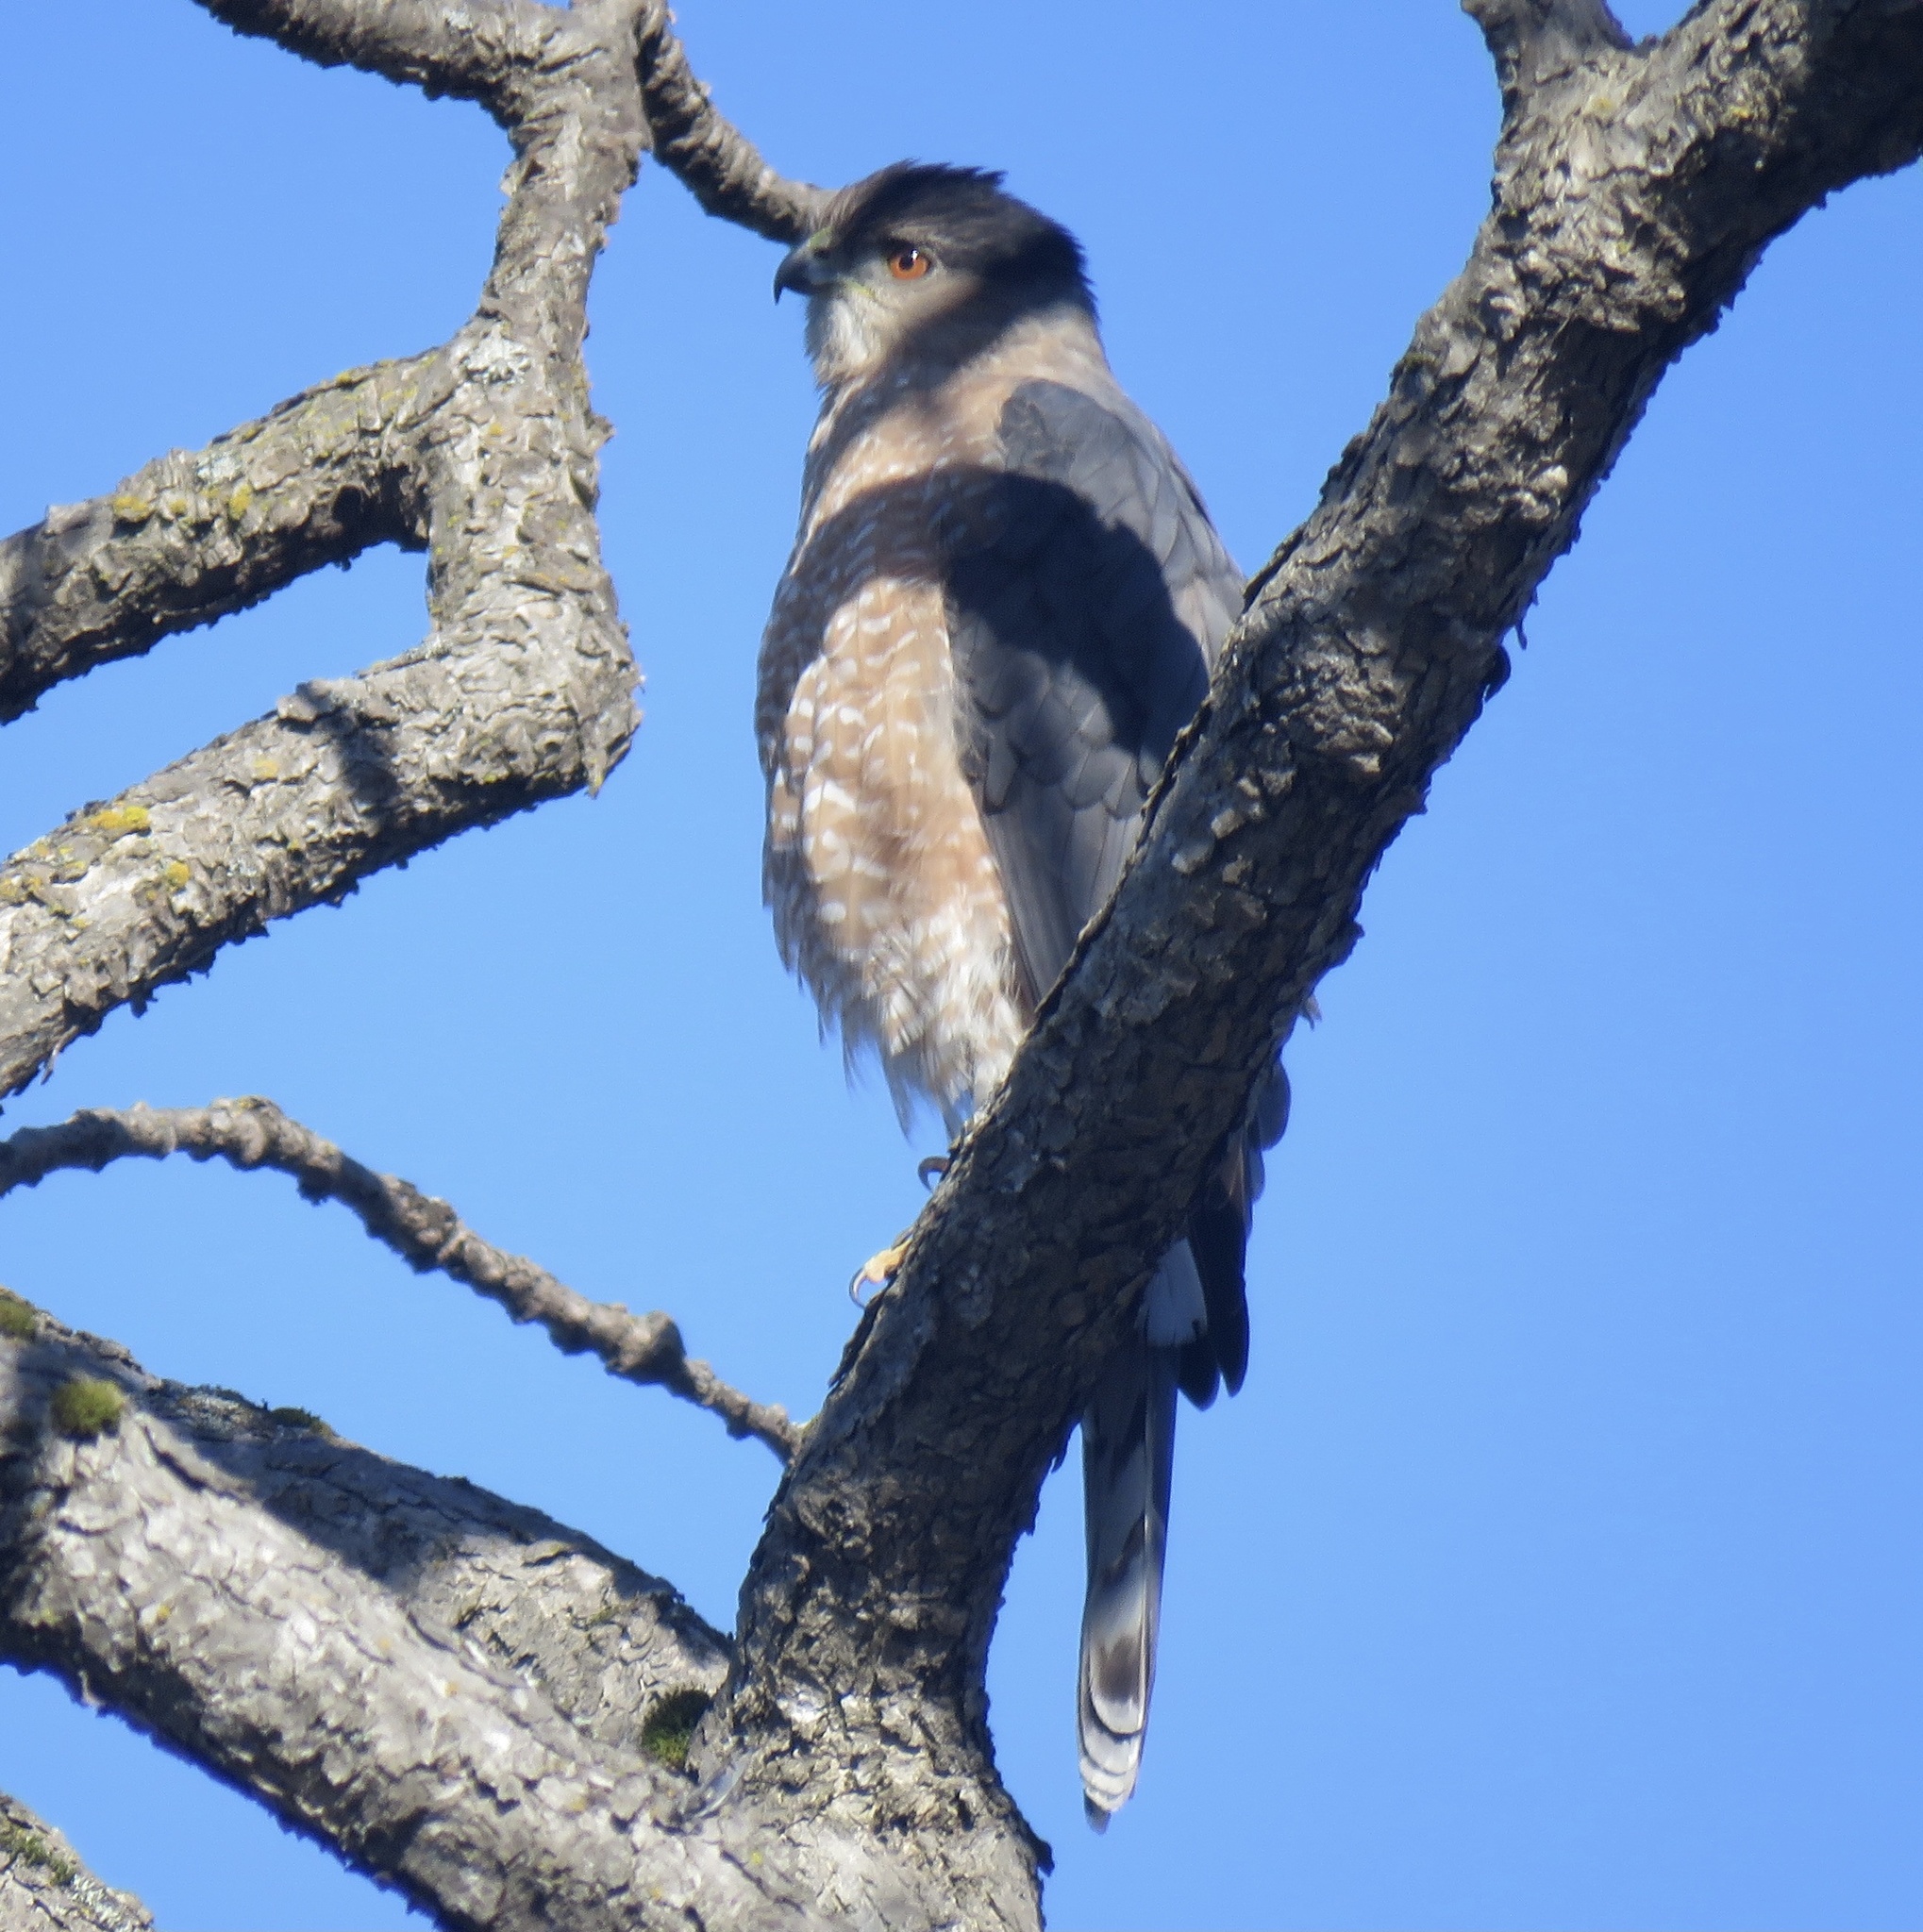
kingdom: Animalia
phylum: Chordata
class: Aves
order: Accipitriformes
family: Accipitridae
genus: Accipiter
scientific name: Accipiter cooperii
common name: Cooper's hawk
